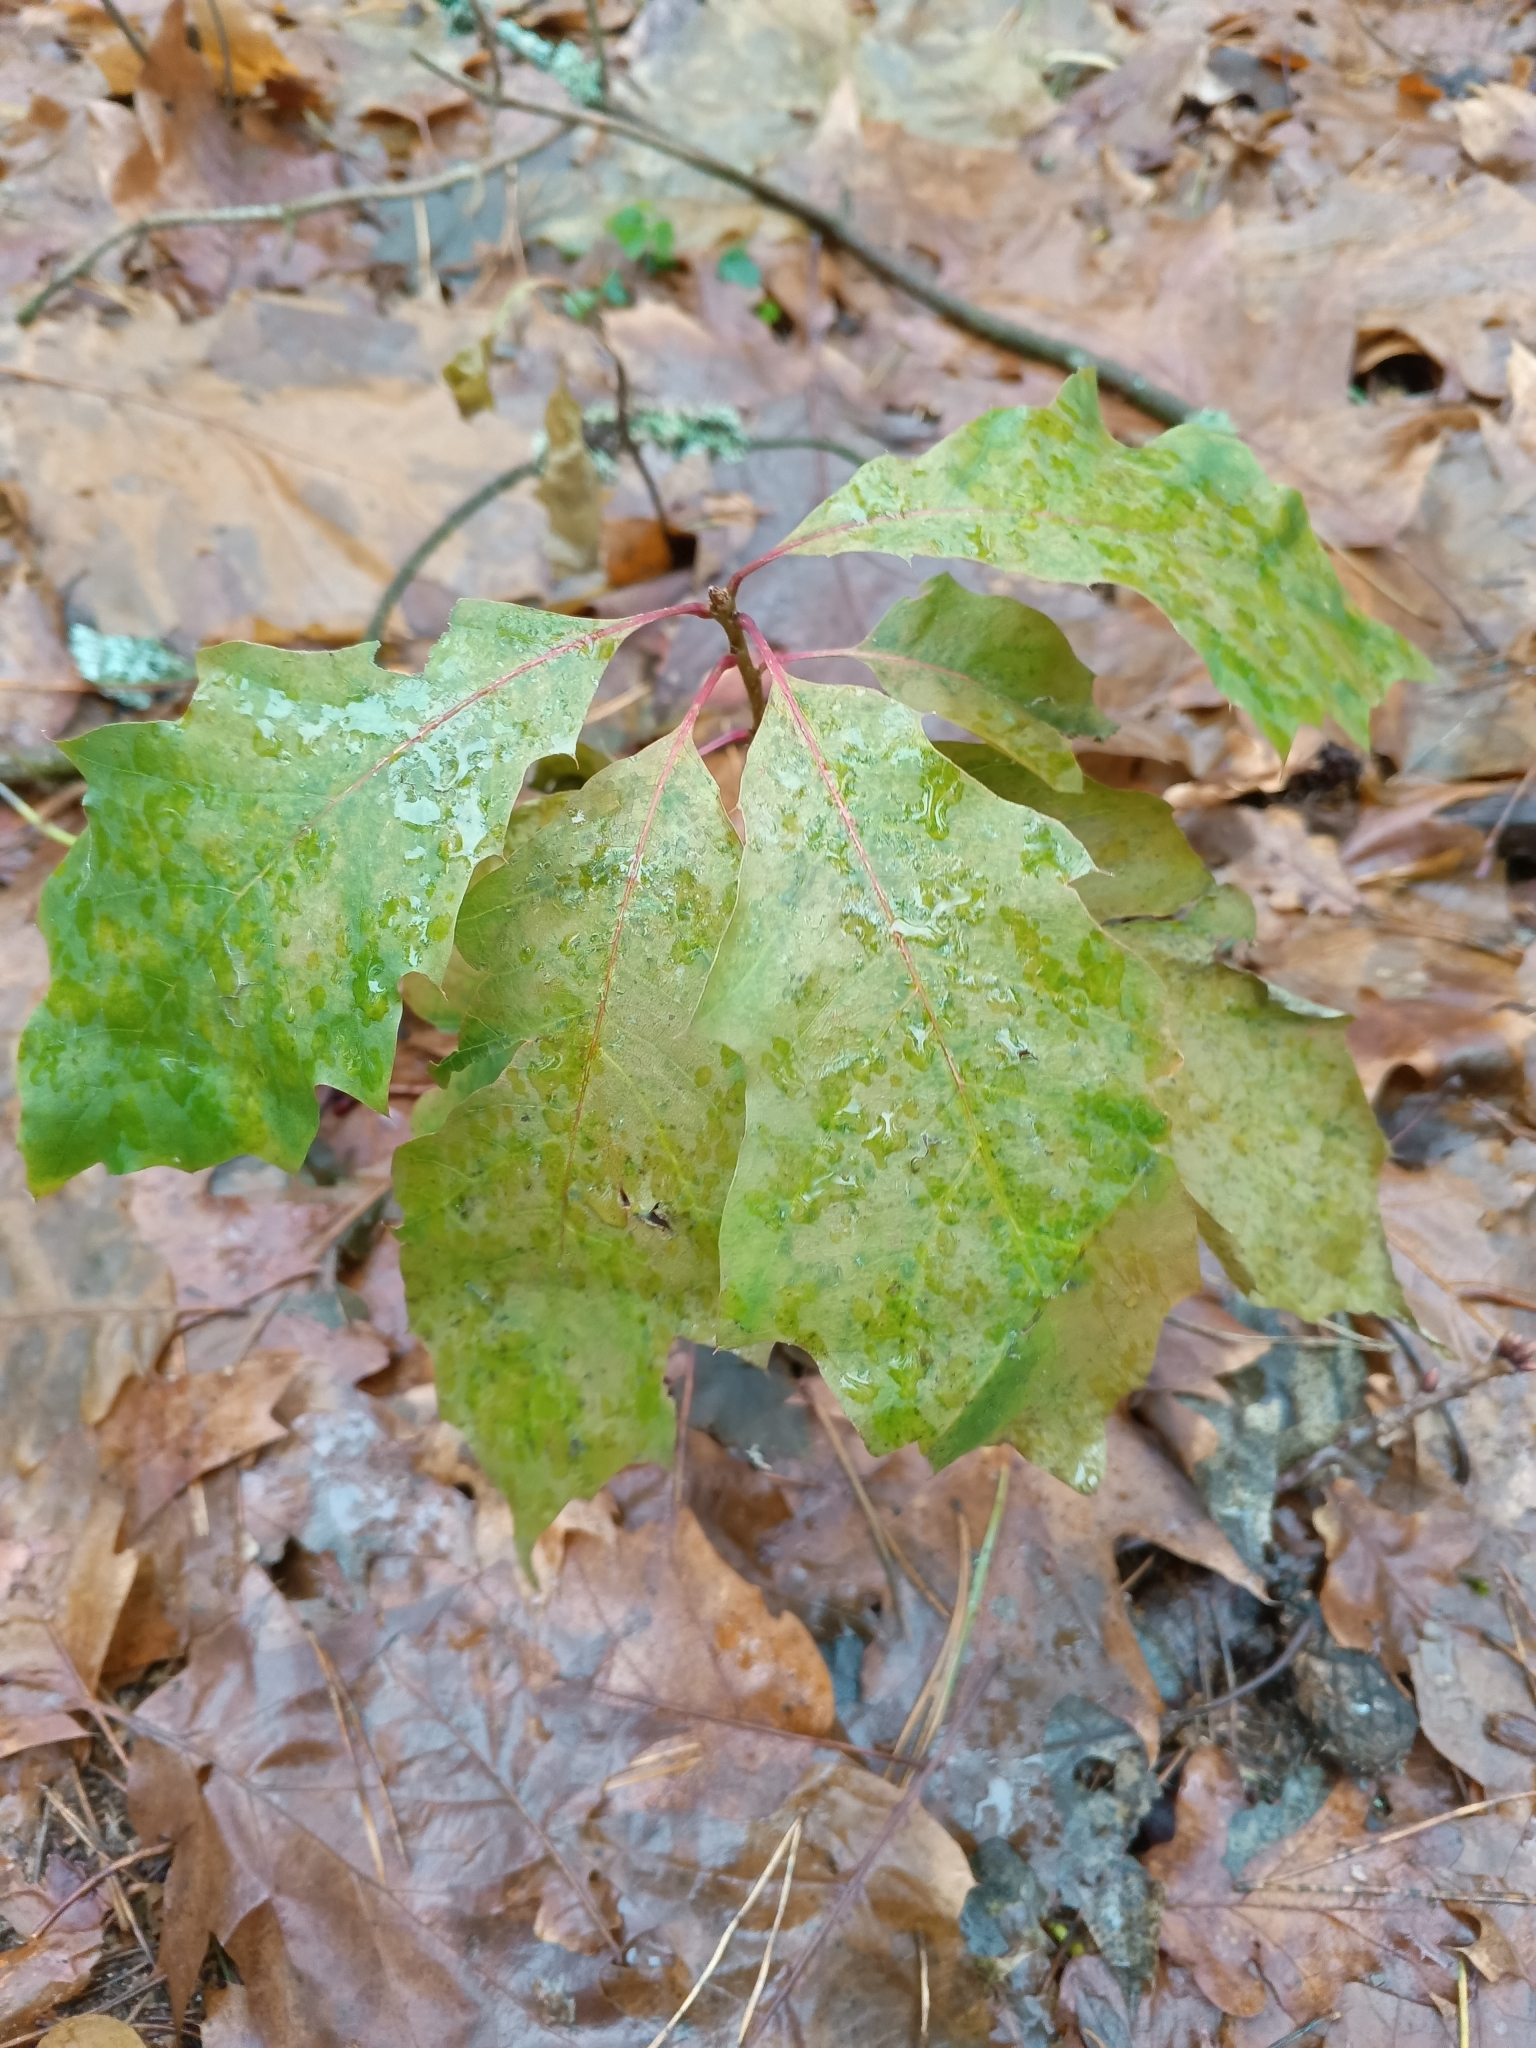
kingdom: Plantae
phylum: Tracheophyta
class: Magnoliopsida
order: Fagales
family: Fagaceae
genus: Quercus
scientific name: Quercus rubra
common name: Red oak
